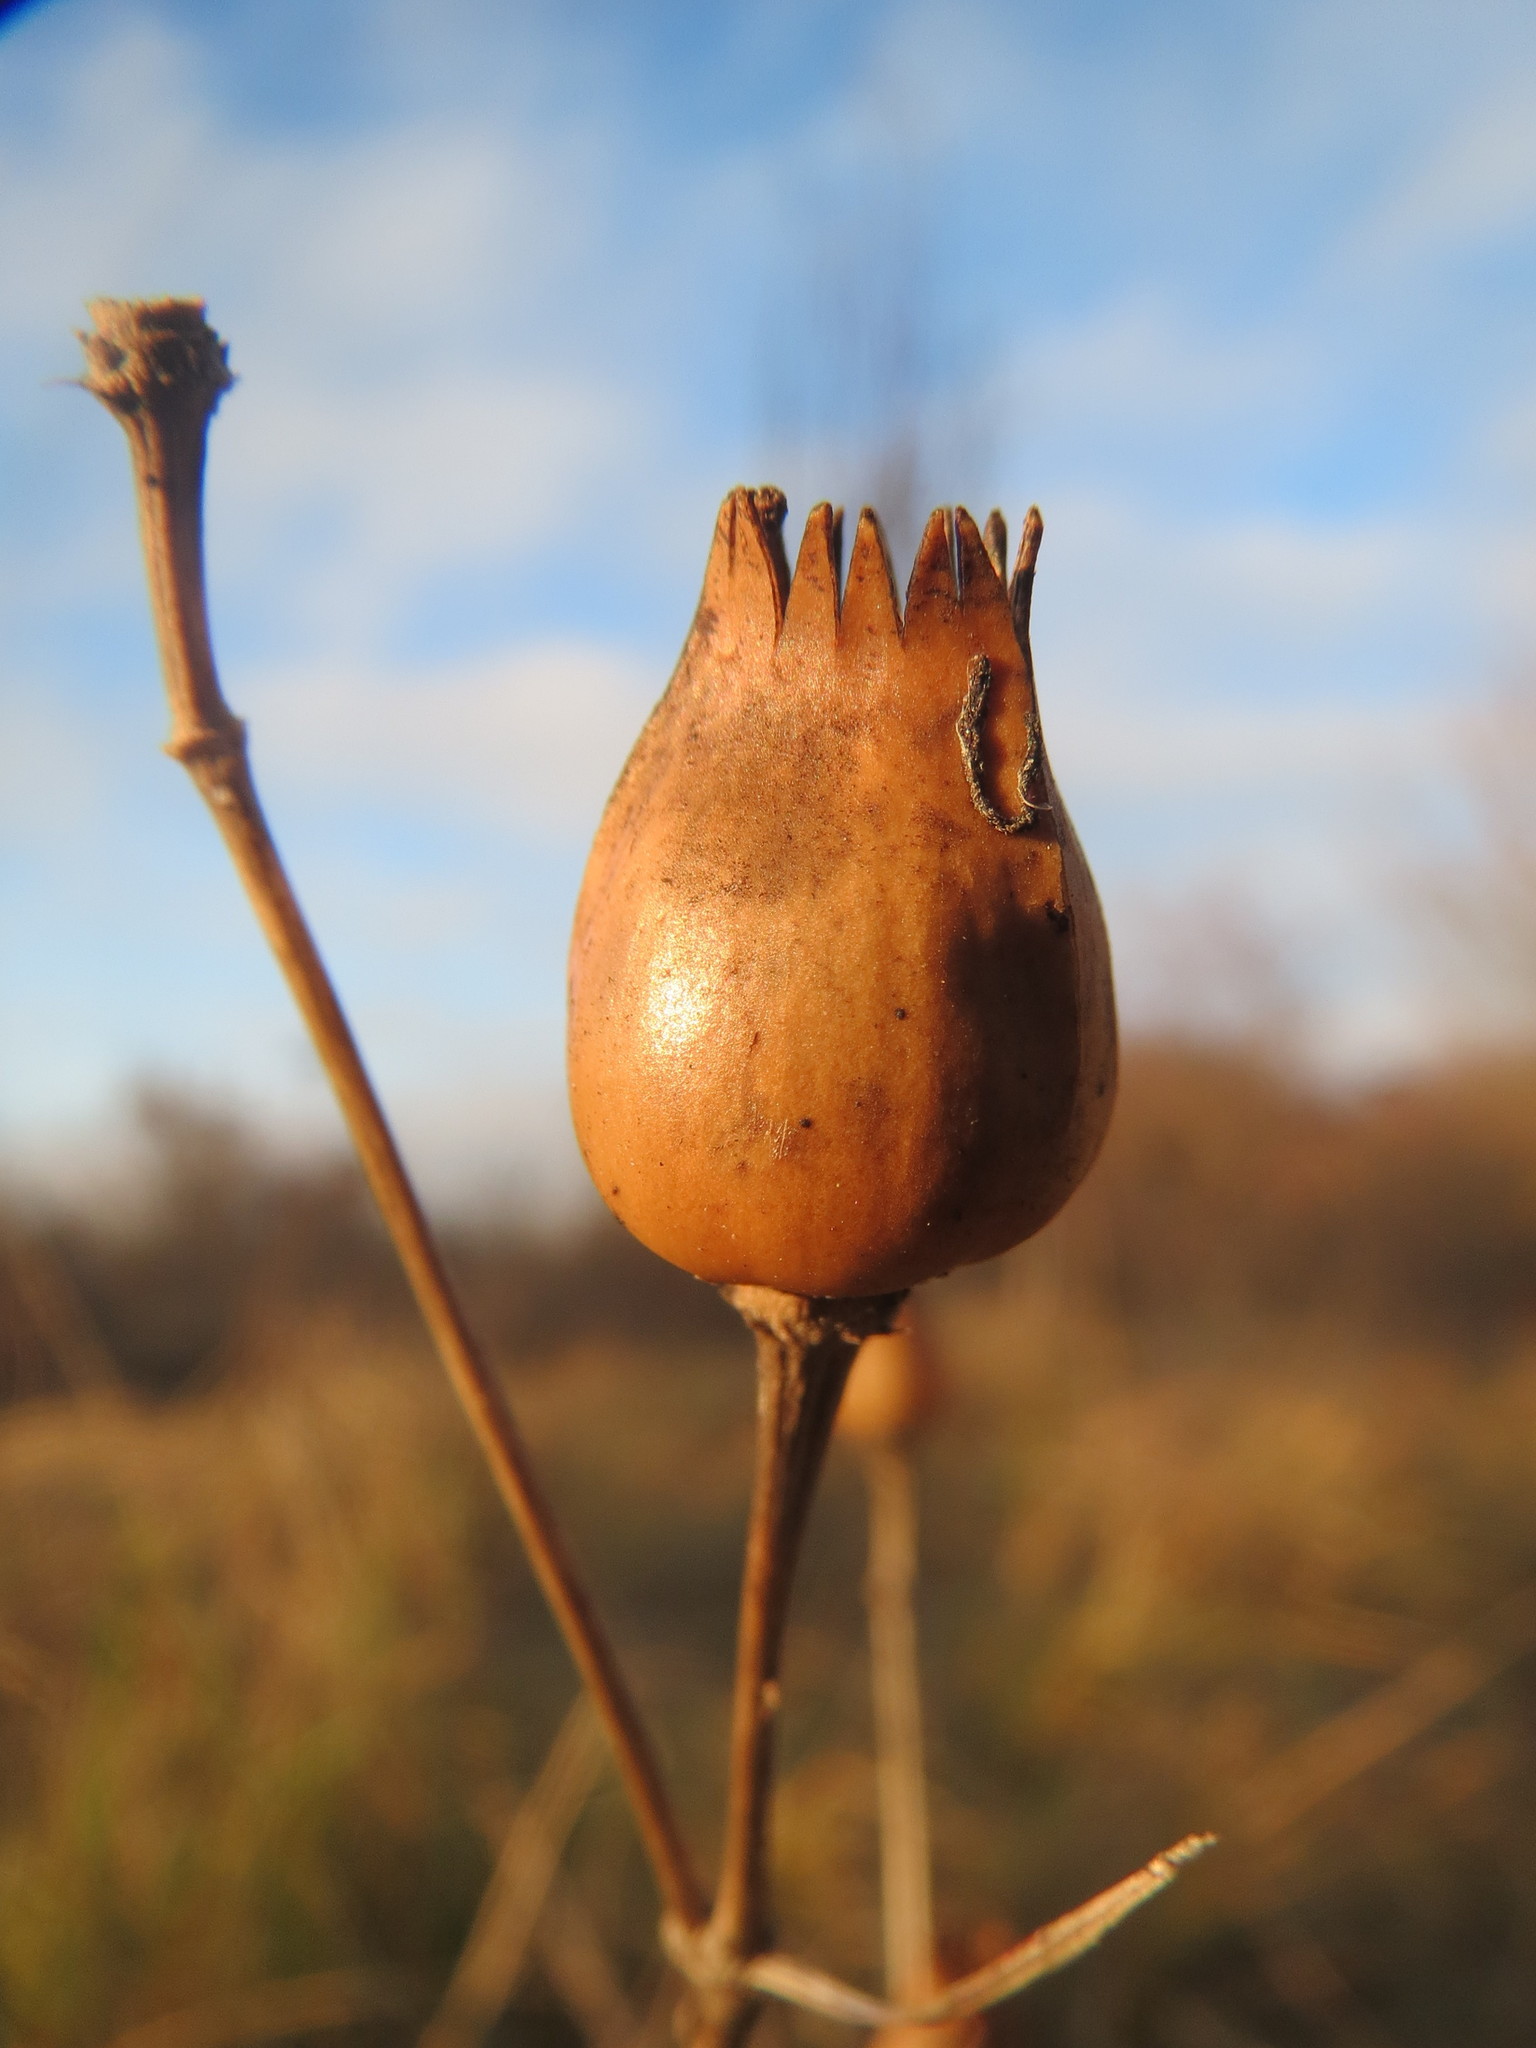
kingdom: Plantae
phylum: Tracheophyta
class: Magnoliopsida
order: Caryophyllales
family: Caryophyllaceae
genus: Silene
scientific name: Silene latifolia
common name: White campion
